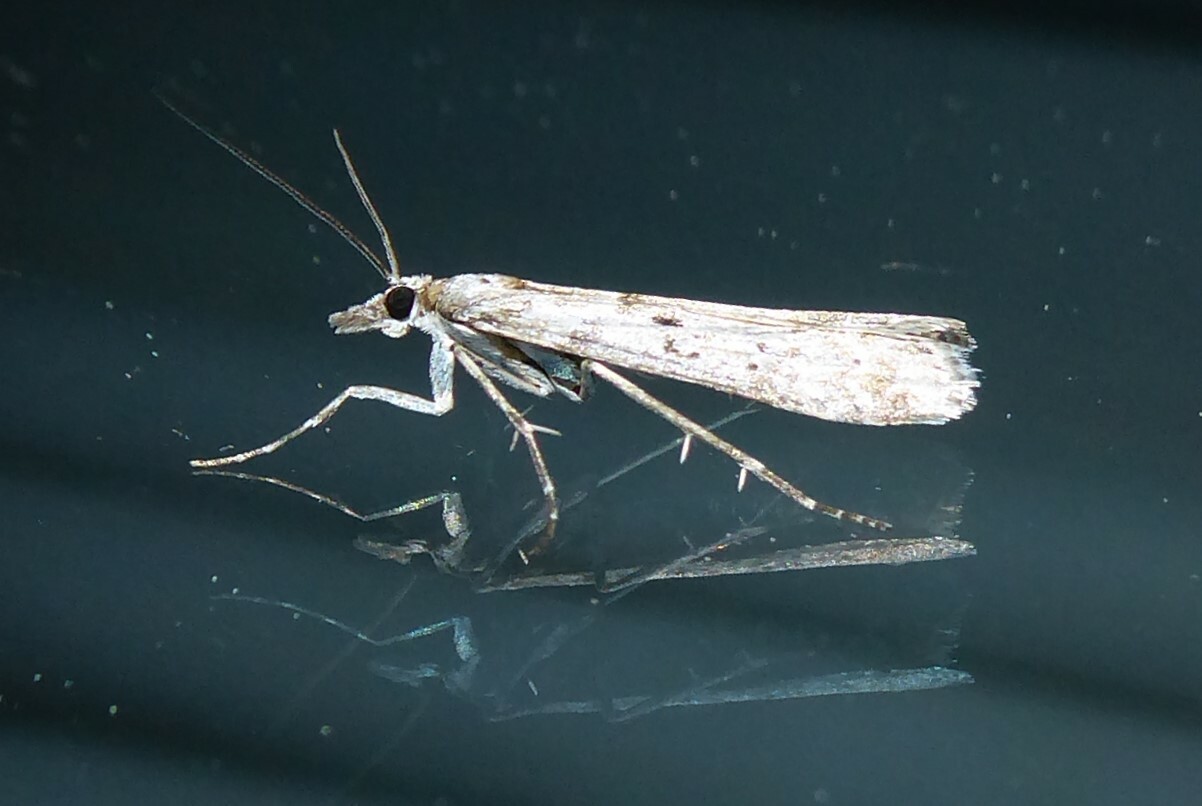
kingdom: Animalia
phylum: Arthropoda
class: Insecta
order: Lepidoptera
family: Crambidae
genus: Eudonia
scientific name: Eudonia leptalea
